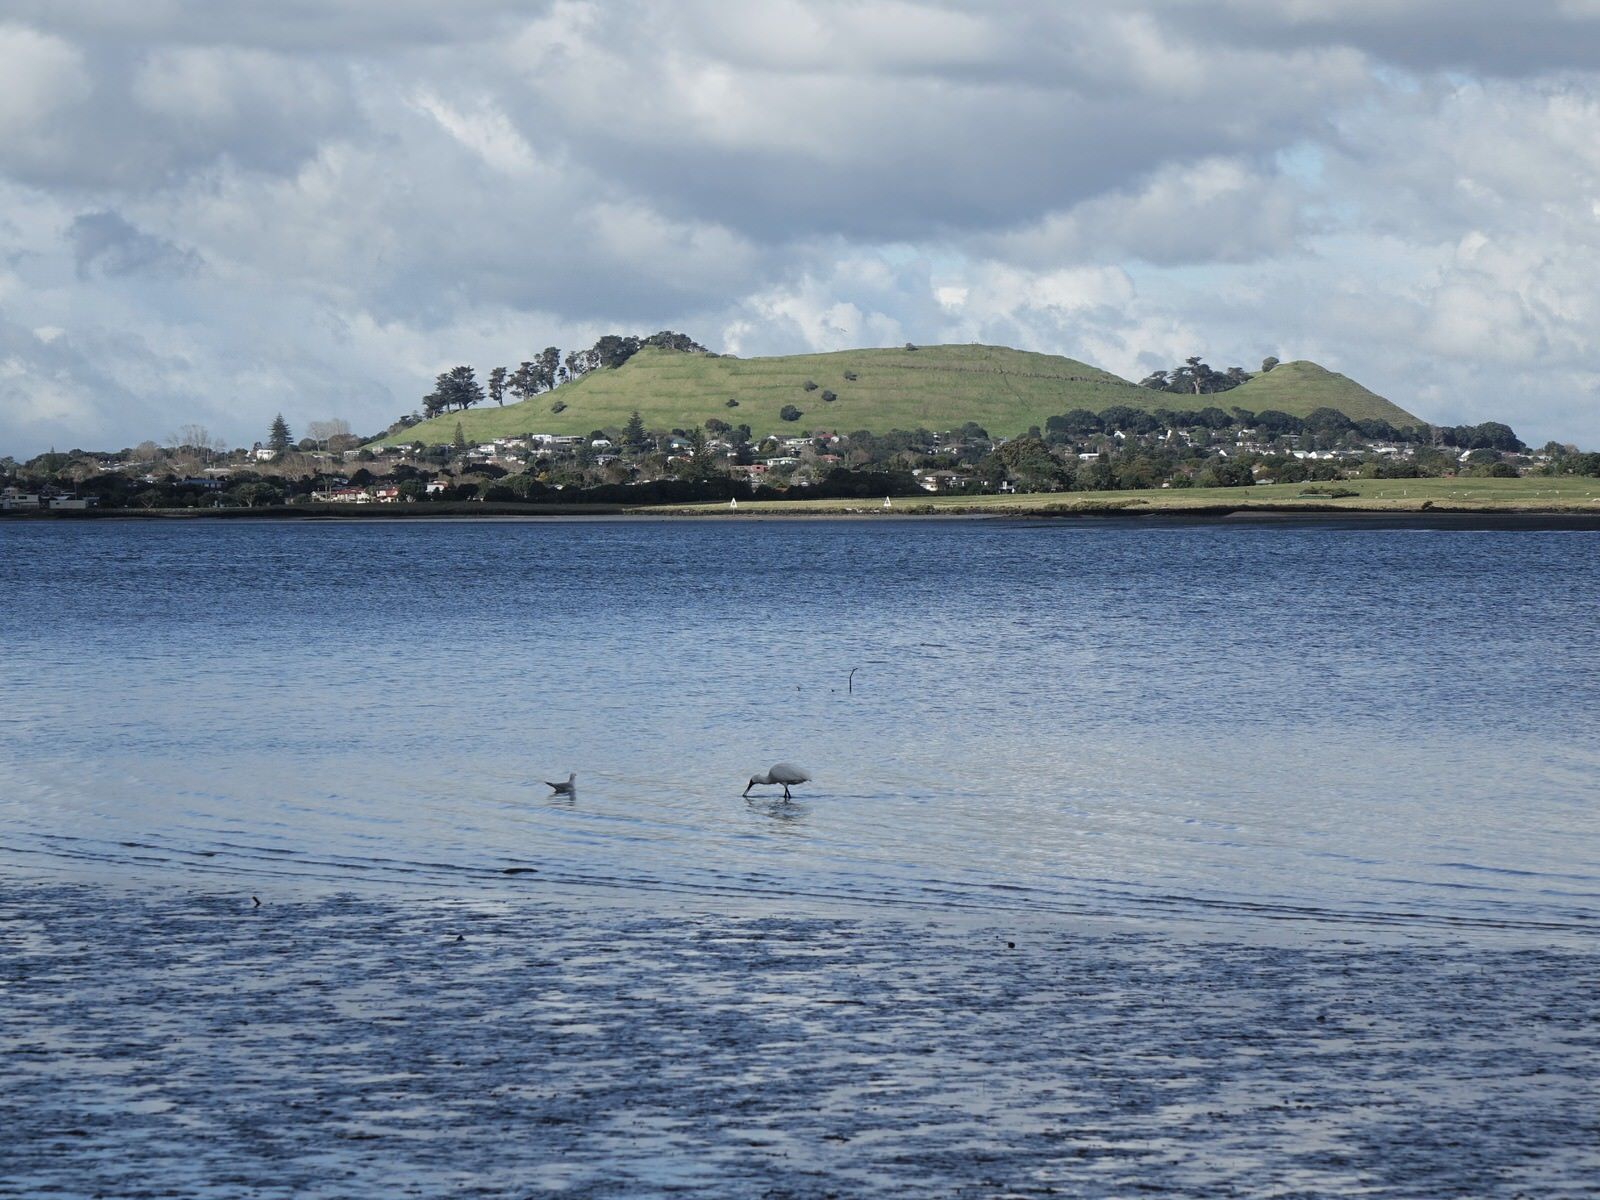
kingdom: Animalia
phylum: Chordata
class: Aves
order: Pelecaniformes
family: Threskiornithidae
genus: Platalea
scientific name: Platalea regia
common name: Royal spoonbill
